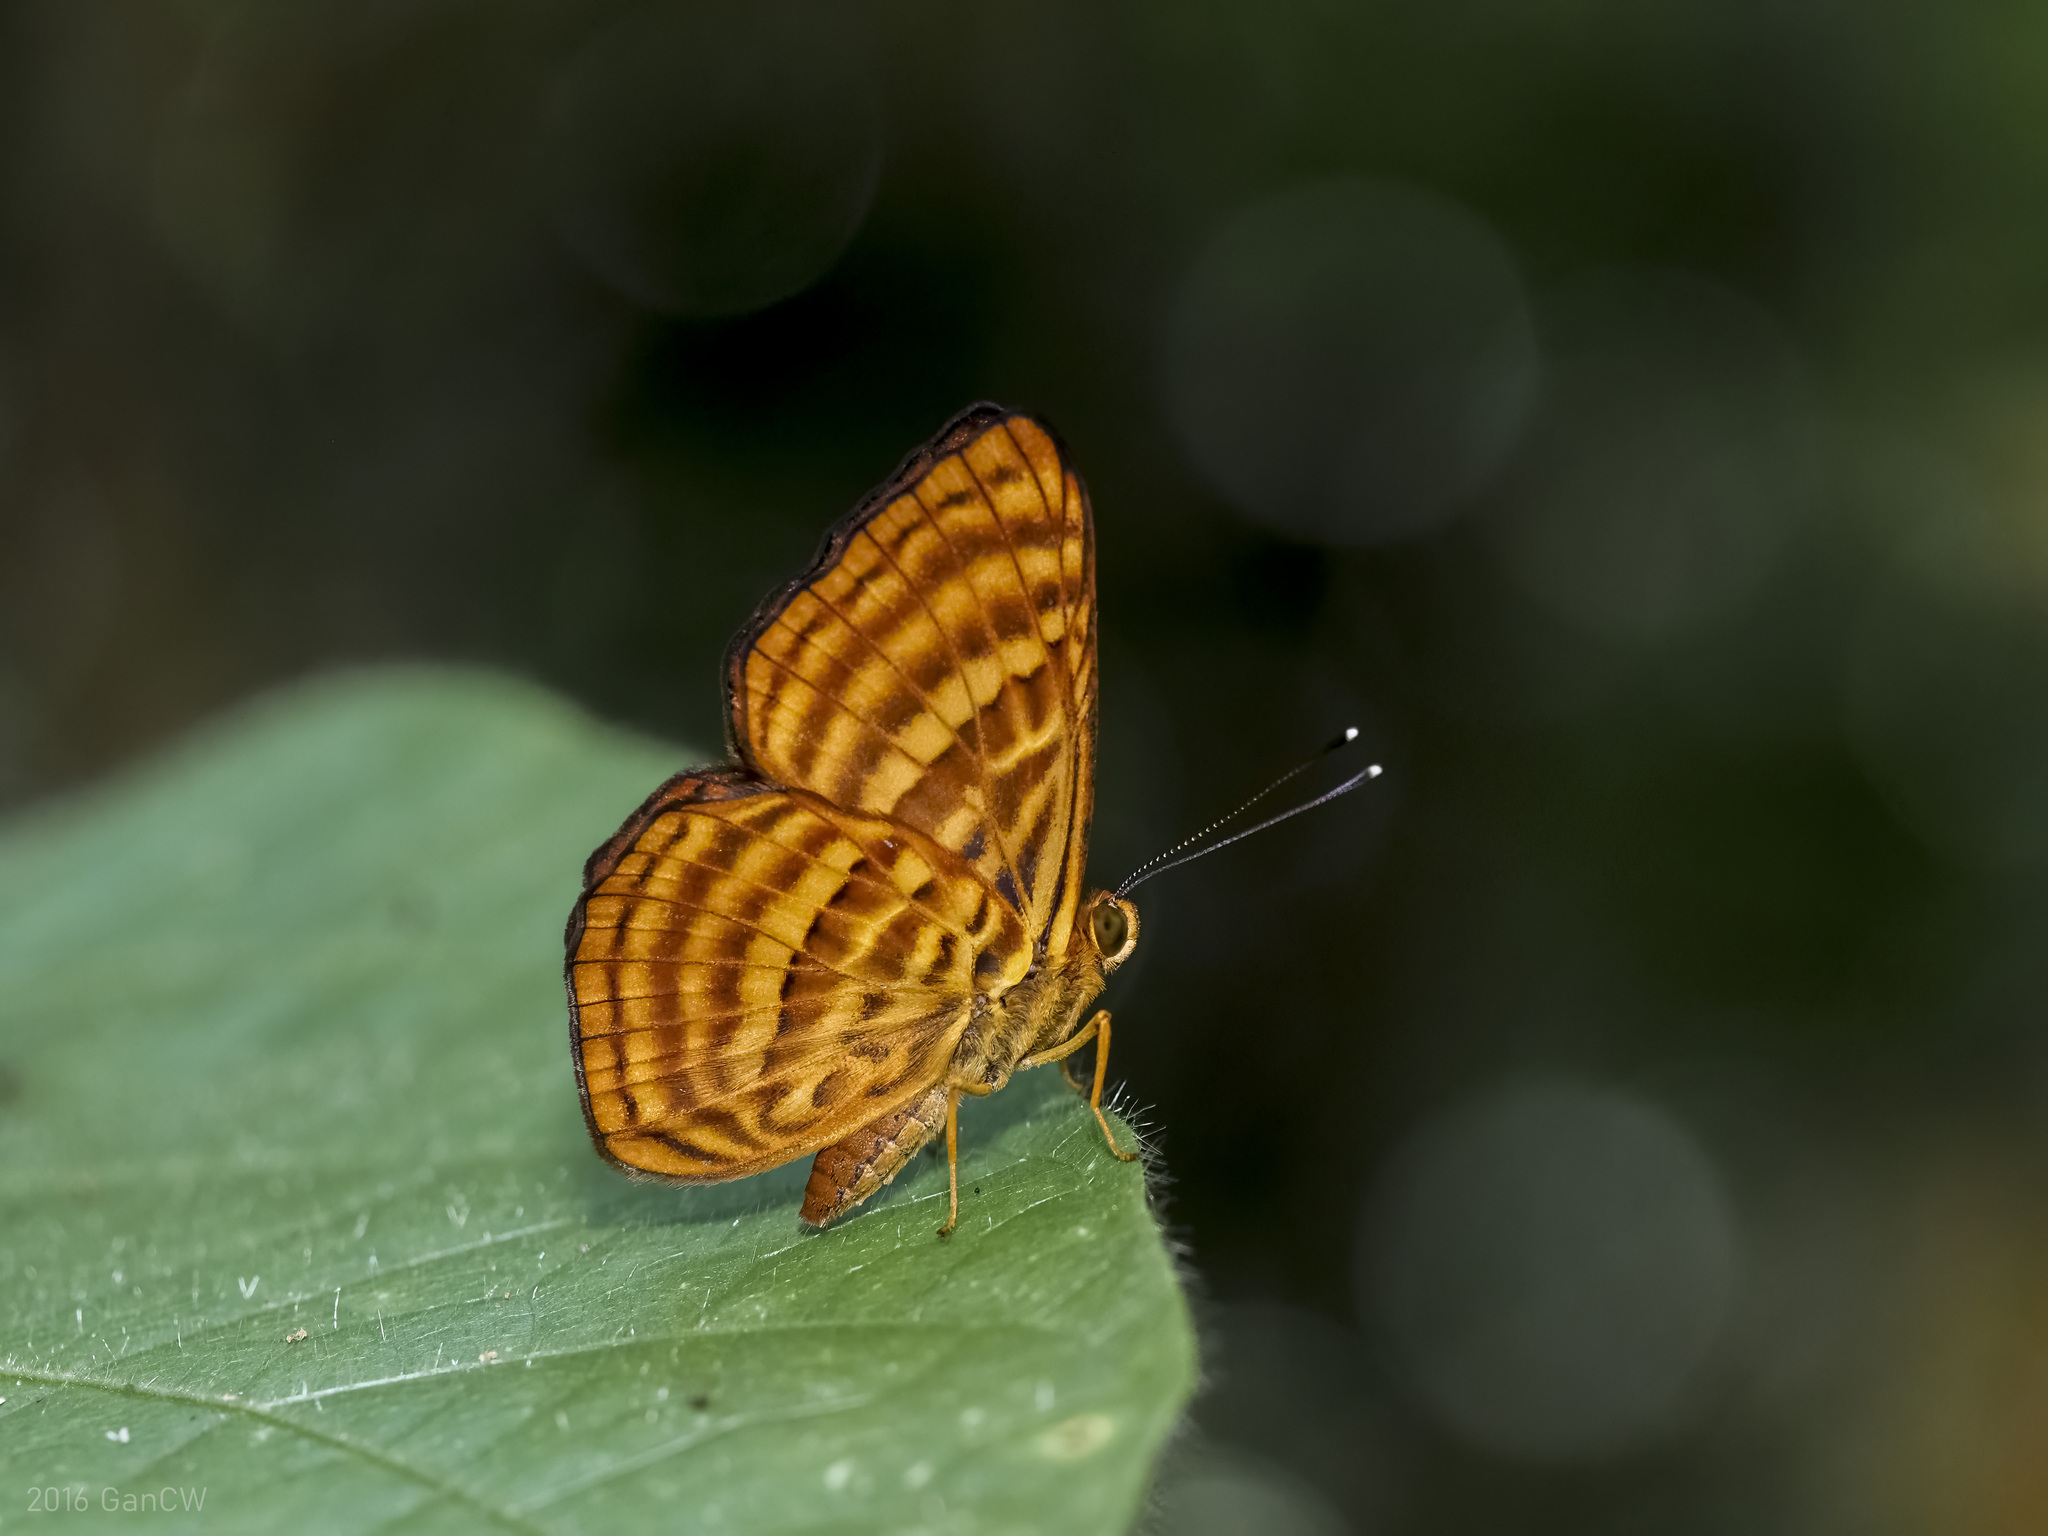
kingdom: Animalia
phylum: Arthropoda
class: Insecta
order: Lepidoptera
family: Riodinidae
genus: Zemeros
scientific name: Zemeros emesoides
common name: Malay punchinello
